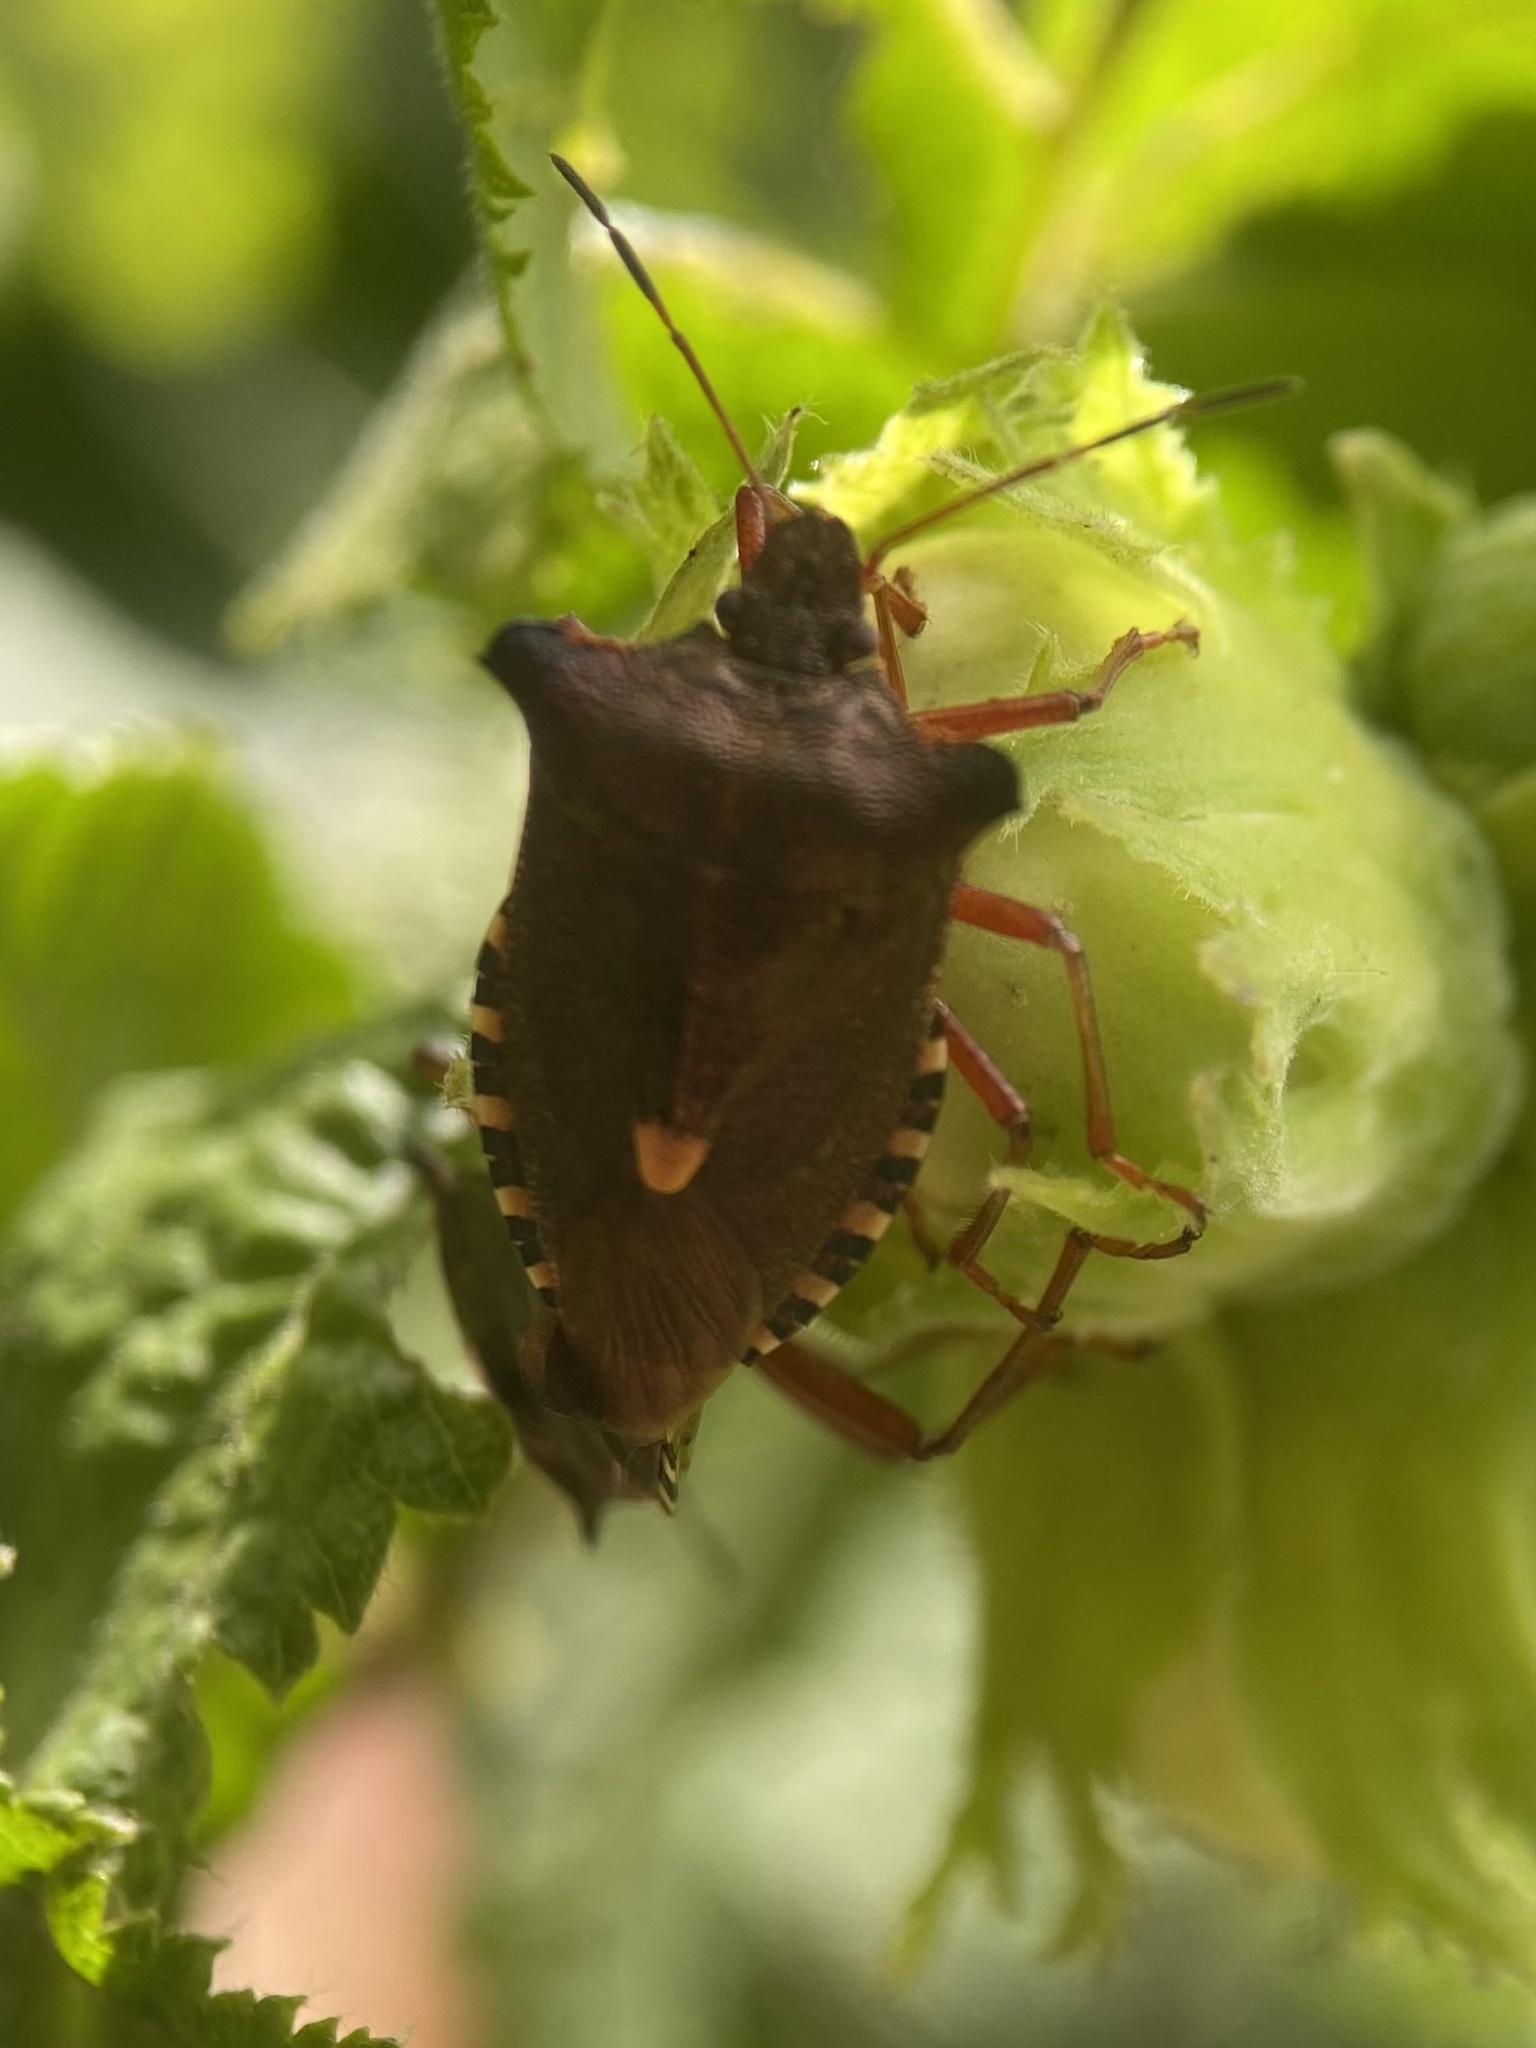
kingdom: Animalia
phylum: Arthropoda
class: Insecta
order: Hemiptera
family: Pentatomidae
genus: Pentatoma
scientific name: Pentatoma rufipes
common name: Forest bug
